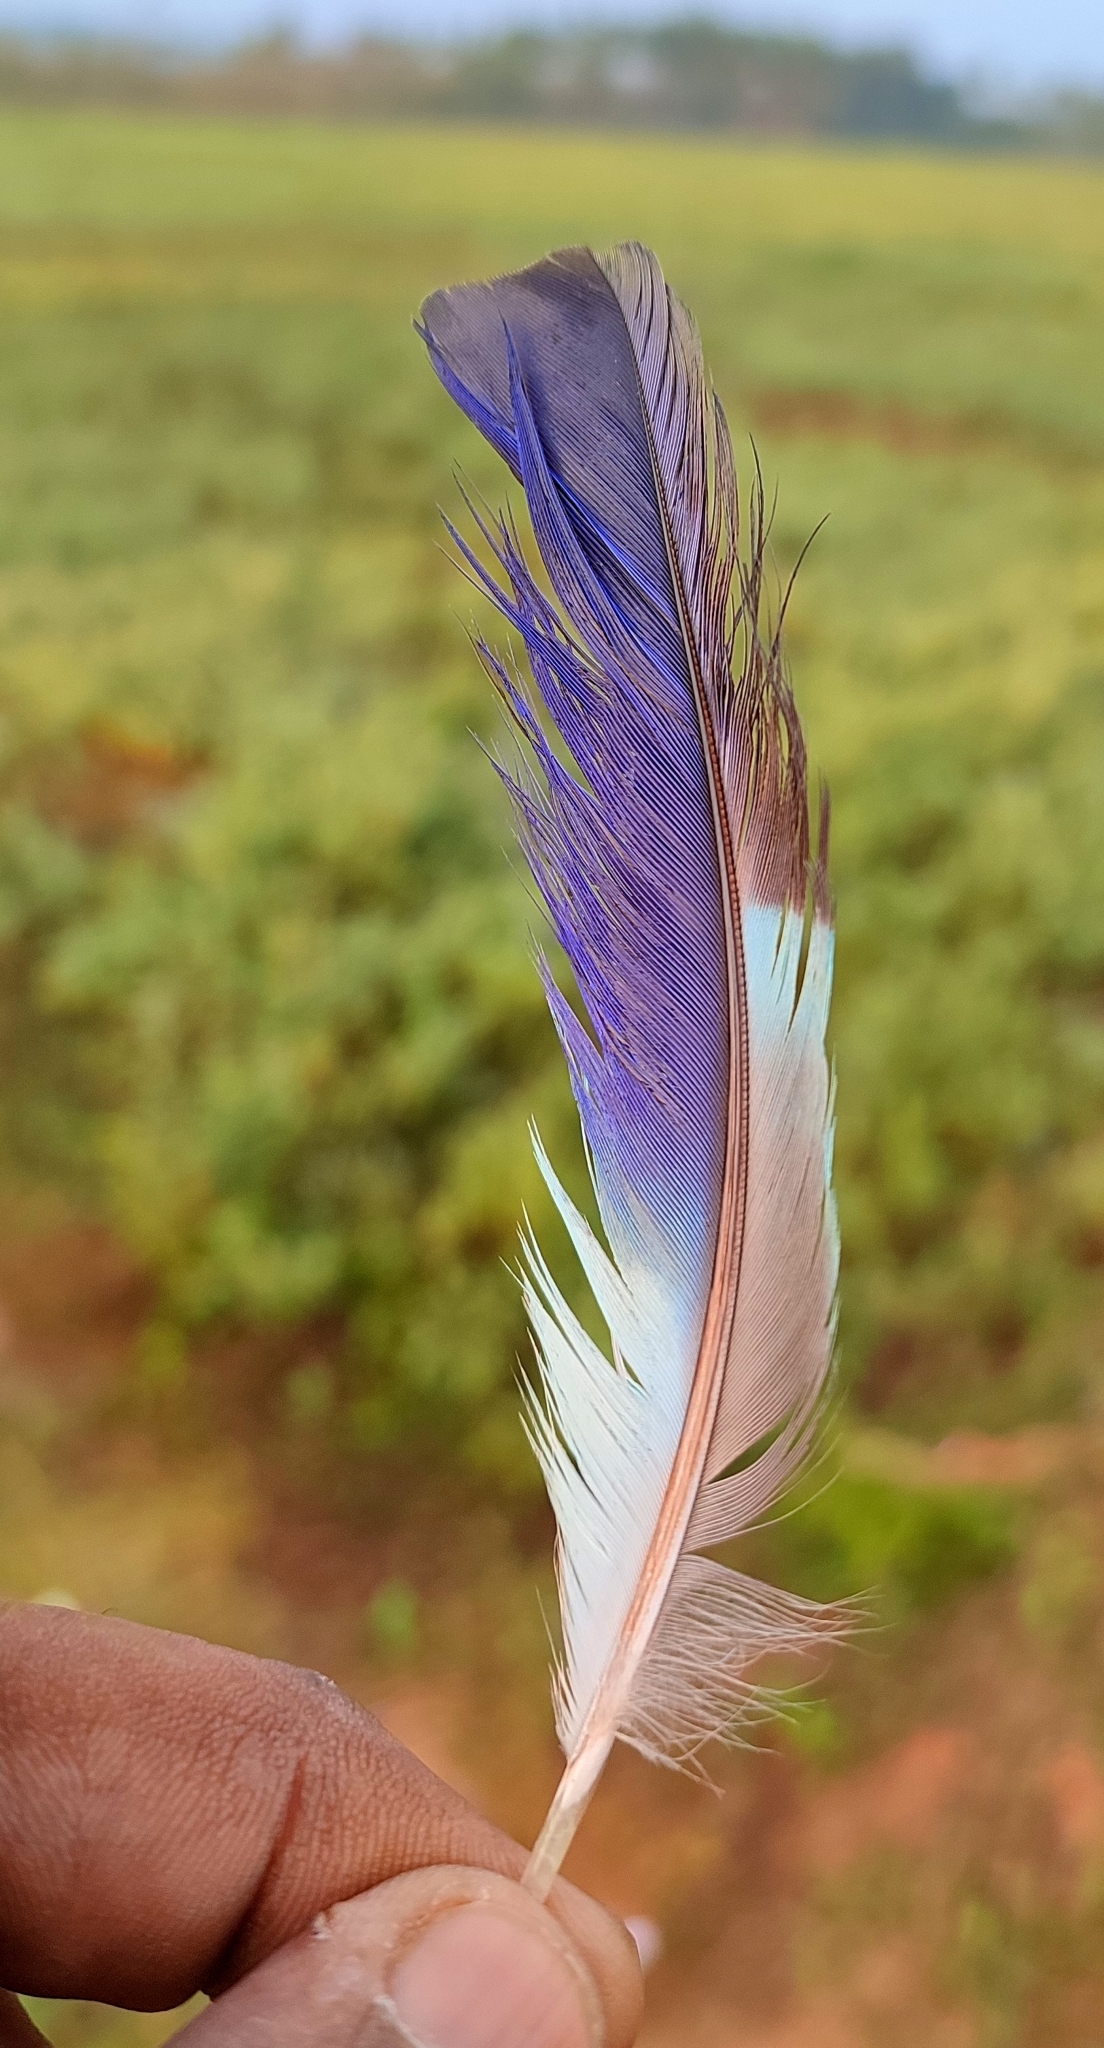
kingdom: Animalia
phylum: Chordata
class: Aves
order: Coraciiformes
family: Coraciidae
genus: Coracias
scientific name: Coracias benghalensis
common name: Indian roller
